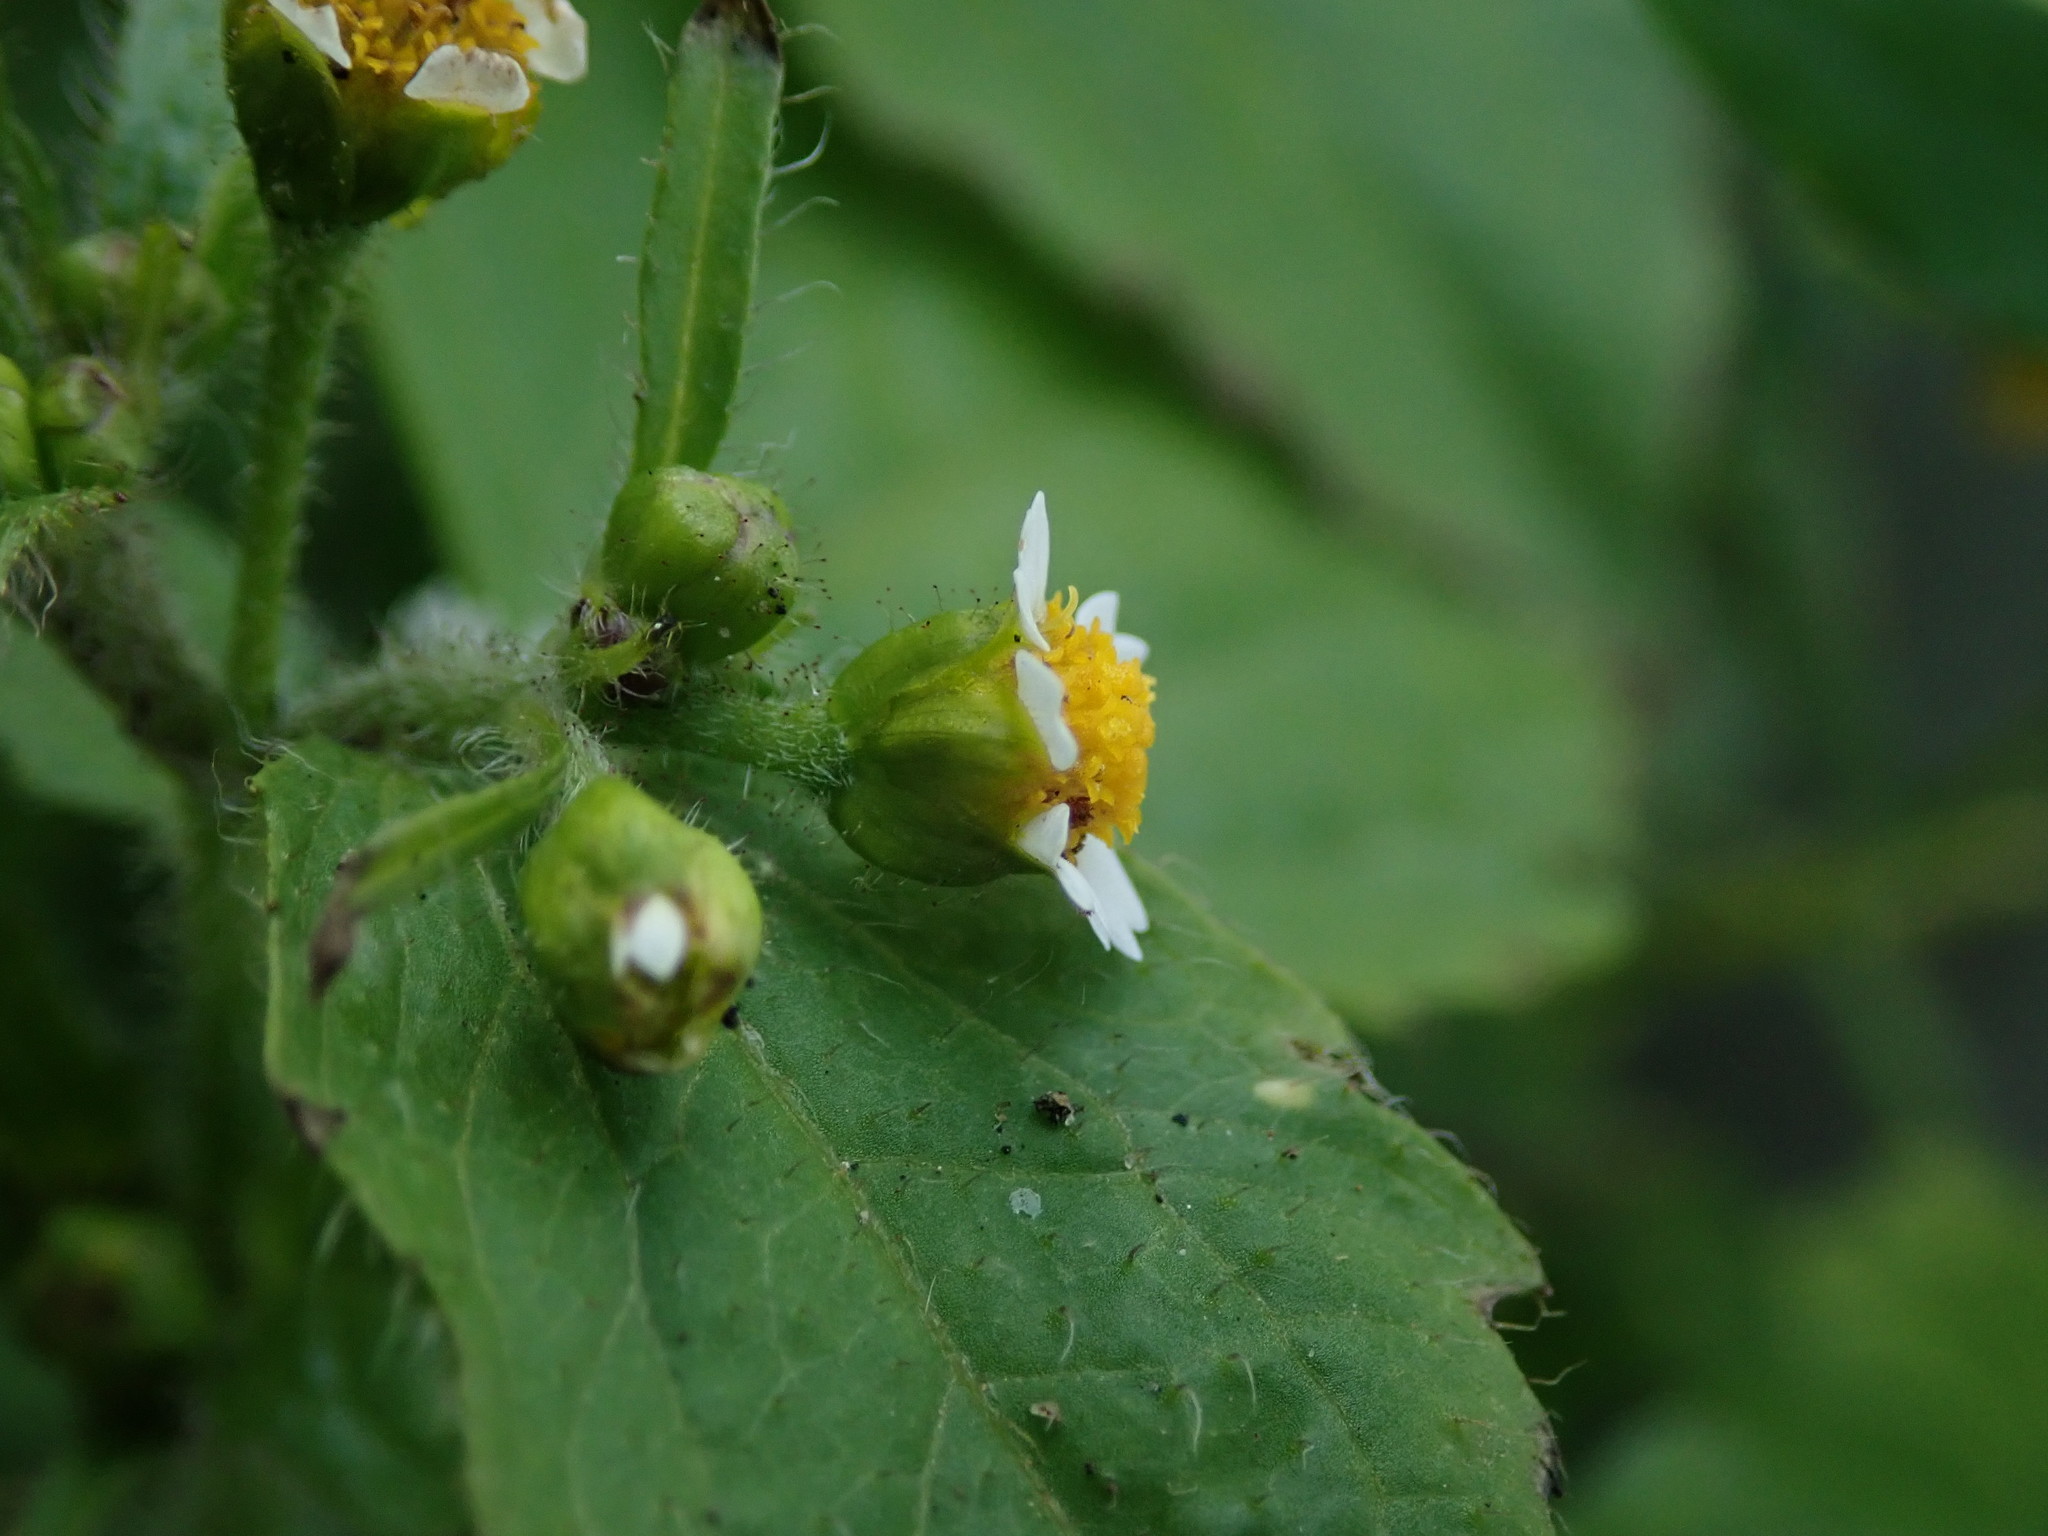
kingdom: Plantae
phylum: Tracheophyta
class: Magnoliopsida
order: Asterales
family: Asteraceae
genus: Galinsoga
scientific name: Galinsoga quadriradiata
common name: Shaggy soldier
